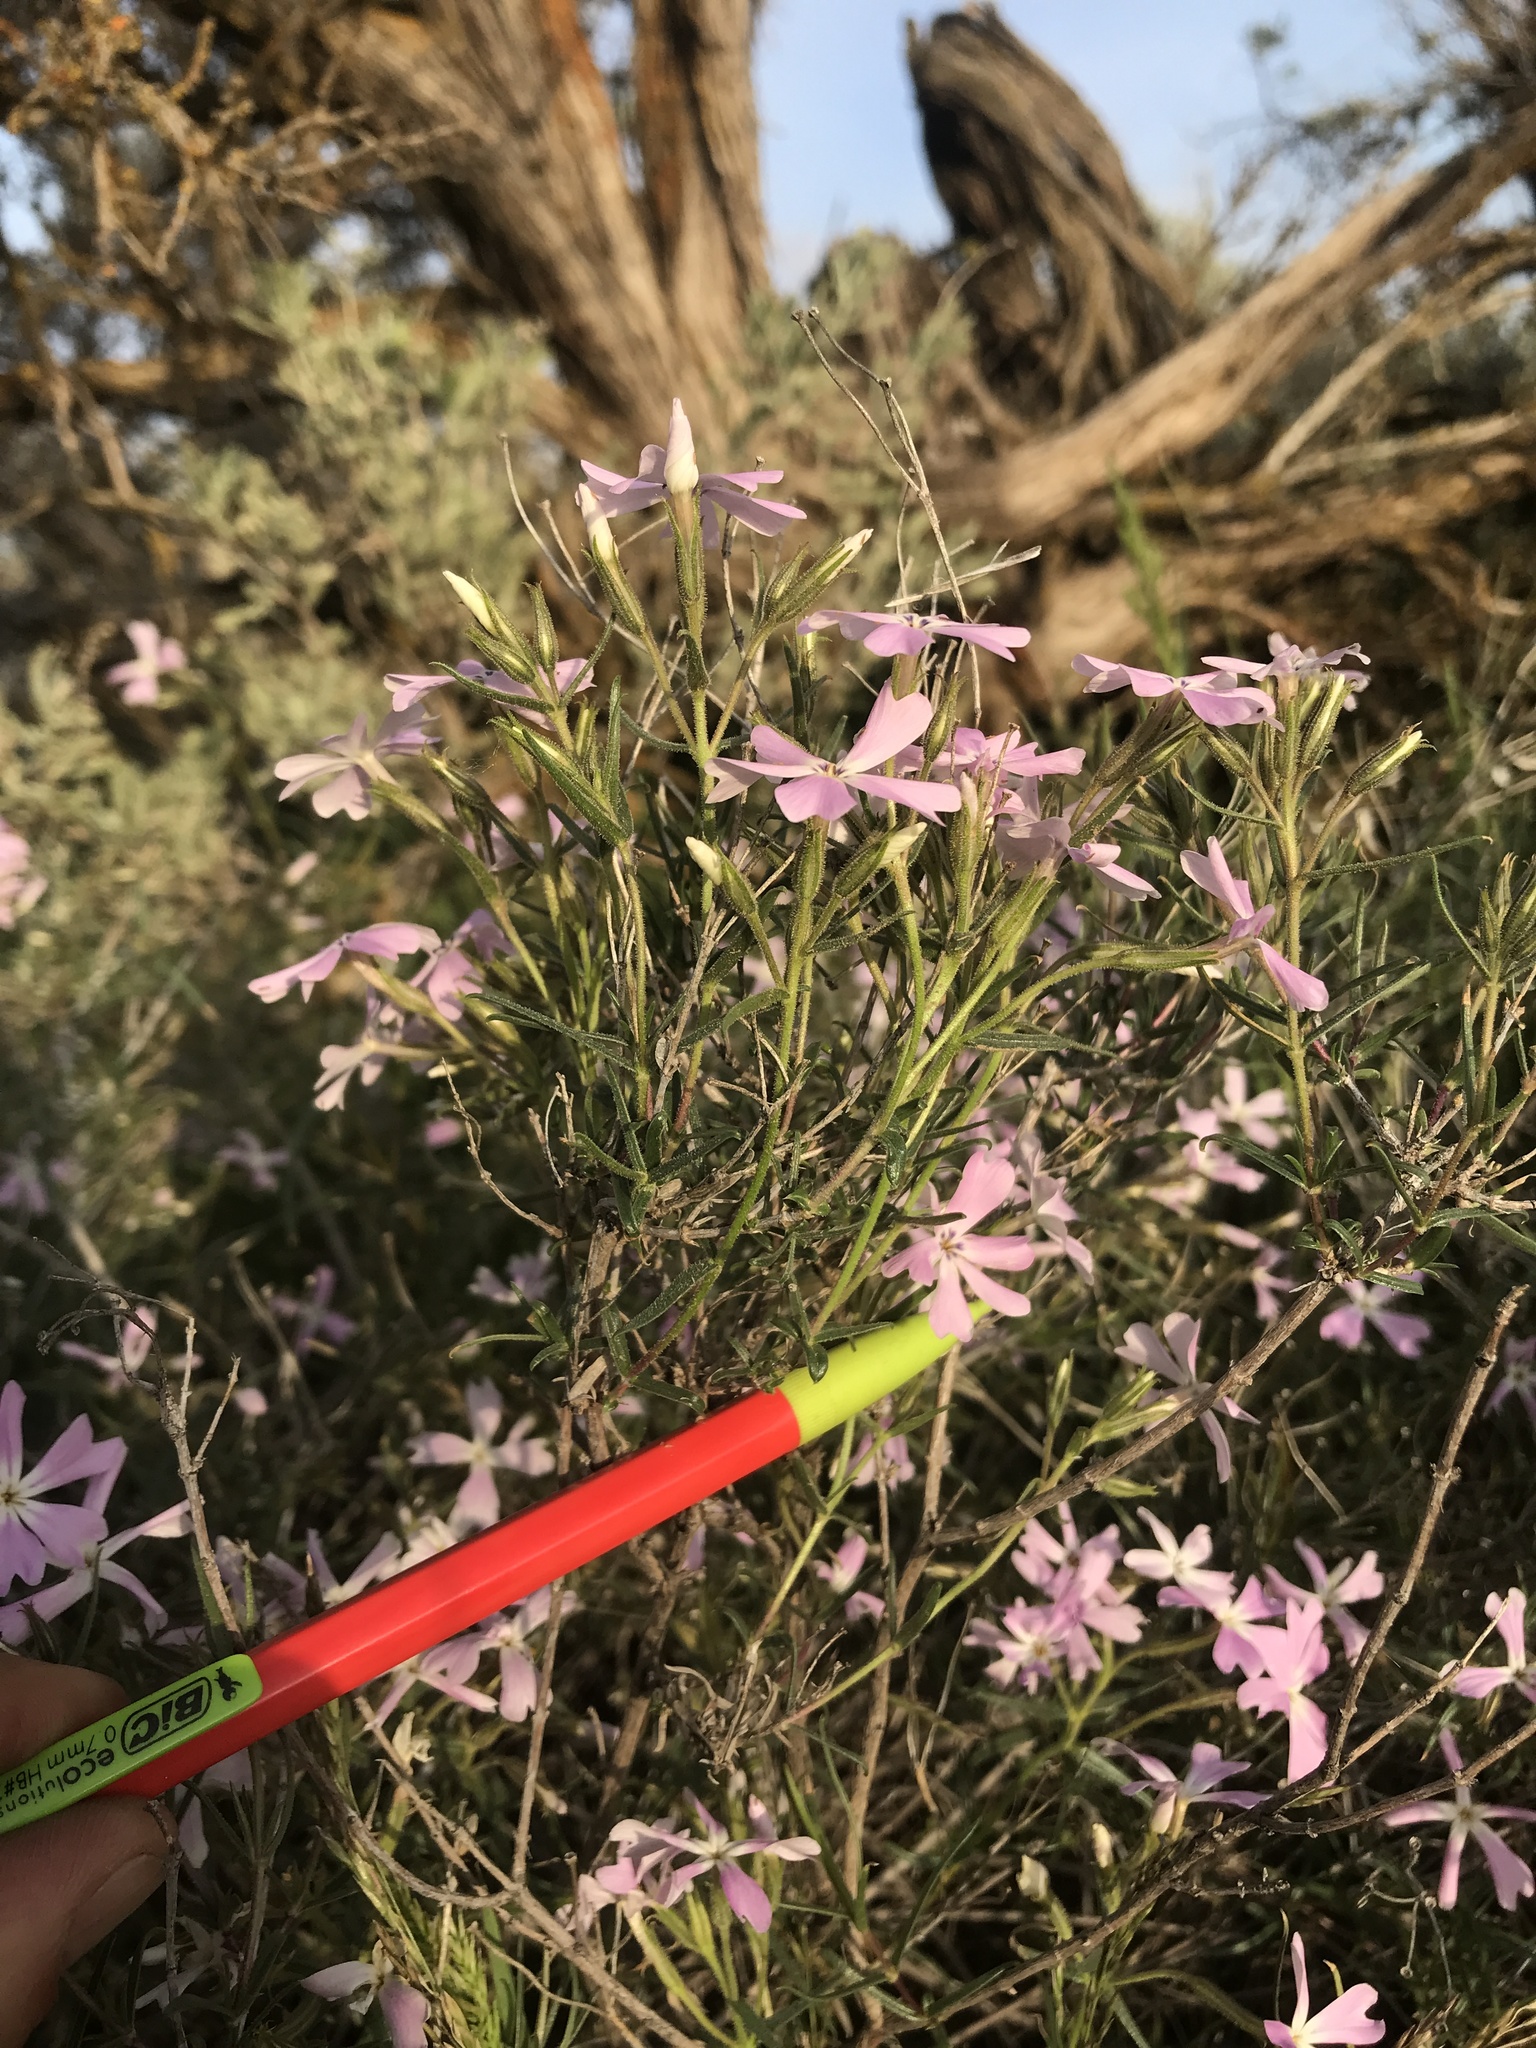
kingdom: Plantae
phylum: Tracheophyta
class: Magnoliopsida
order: Ericales
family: Polemoniaceae
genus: Phlox
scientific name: Phlox speciosa
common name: Bush phlox
